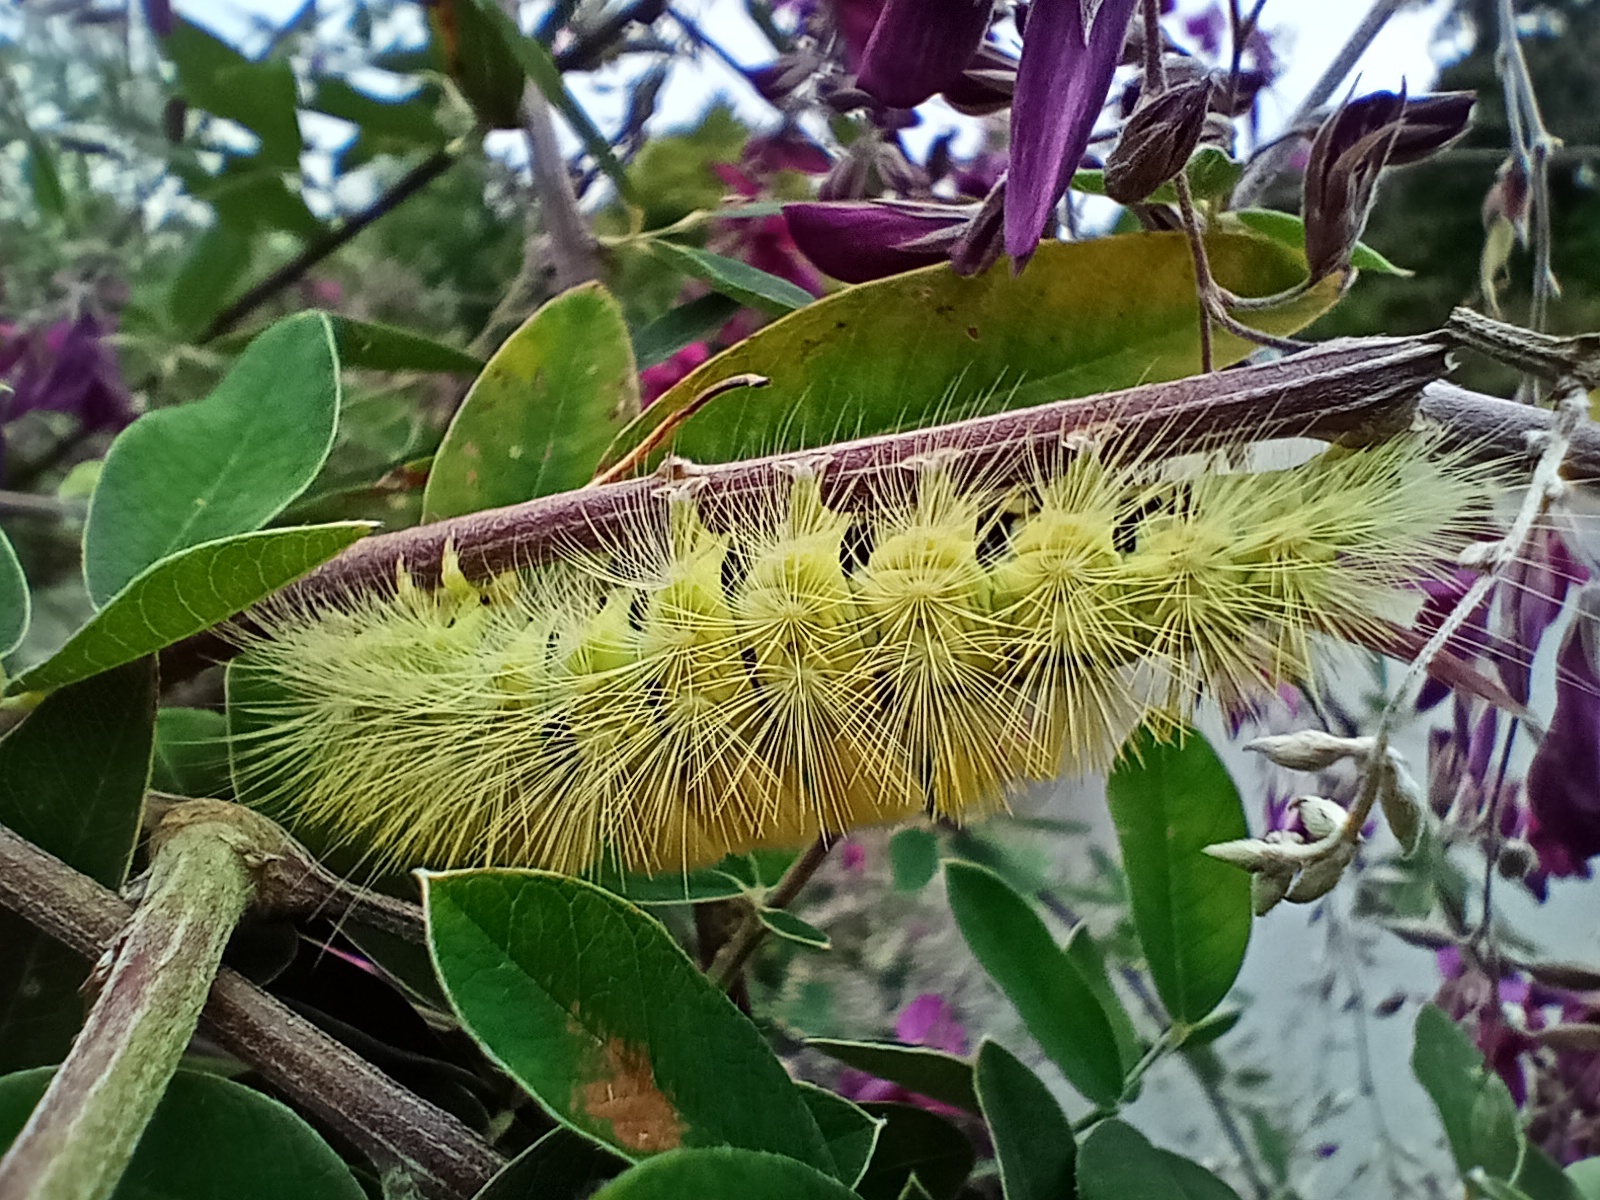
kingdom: Animalia
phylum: Arthropoda
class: Insecta
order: Lepidoptera
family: Erebidae
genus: Calliteara
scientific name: Calliteara pudibunda
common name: Pale tussock
